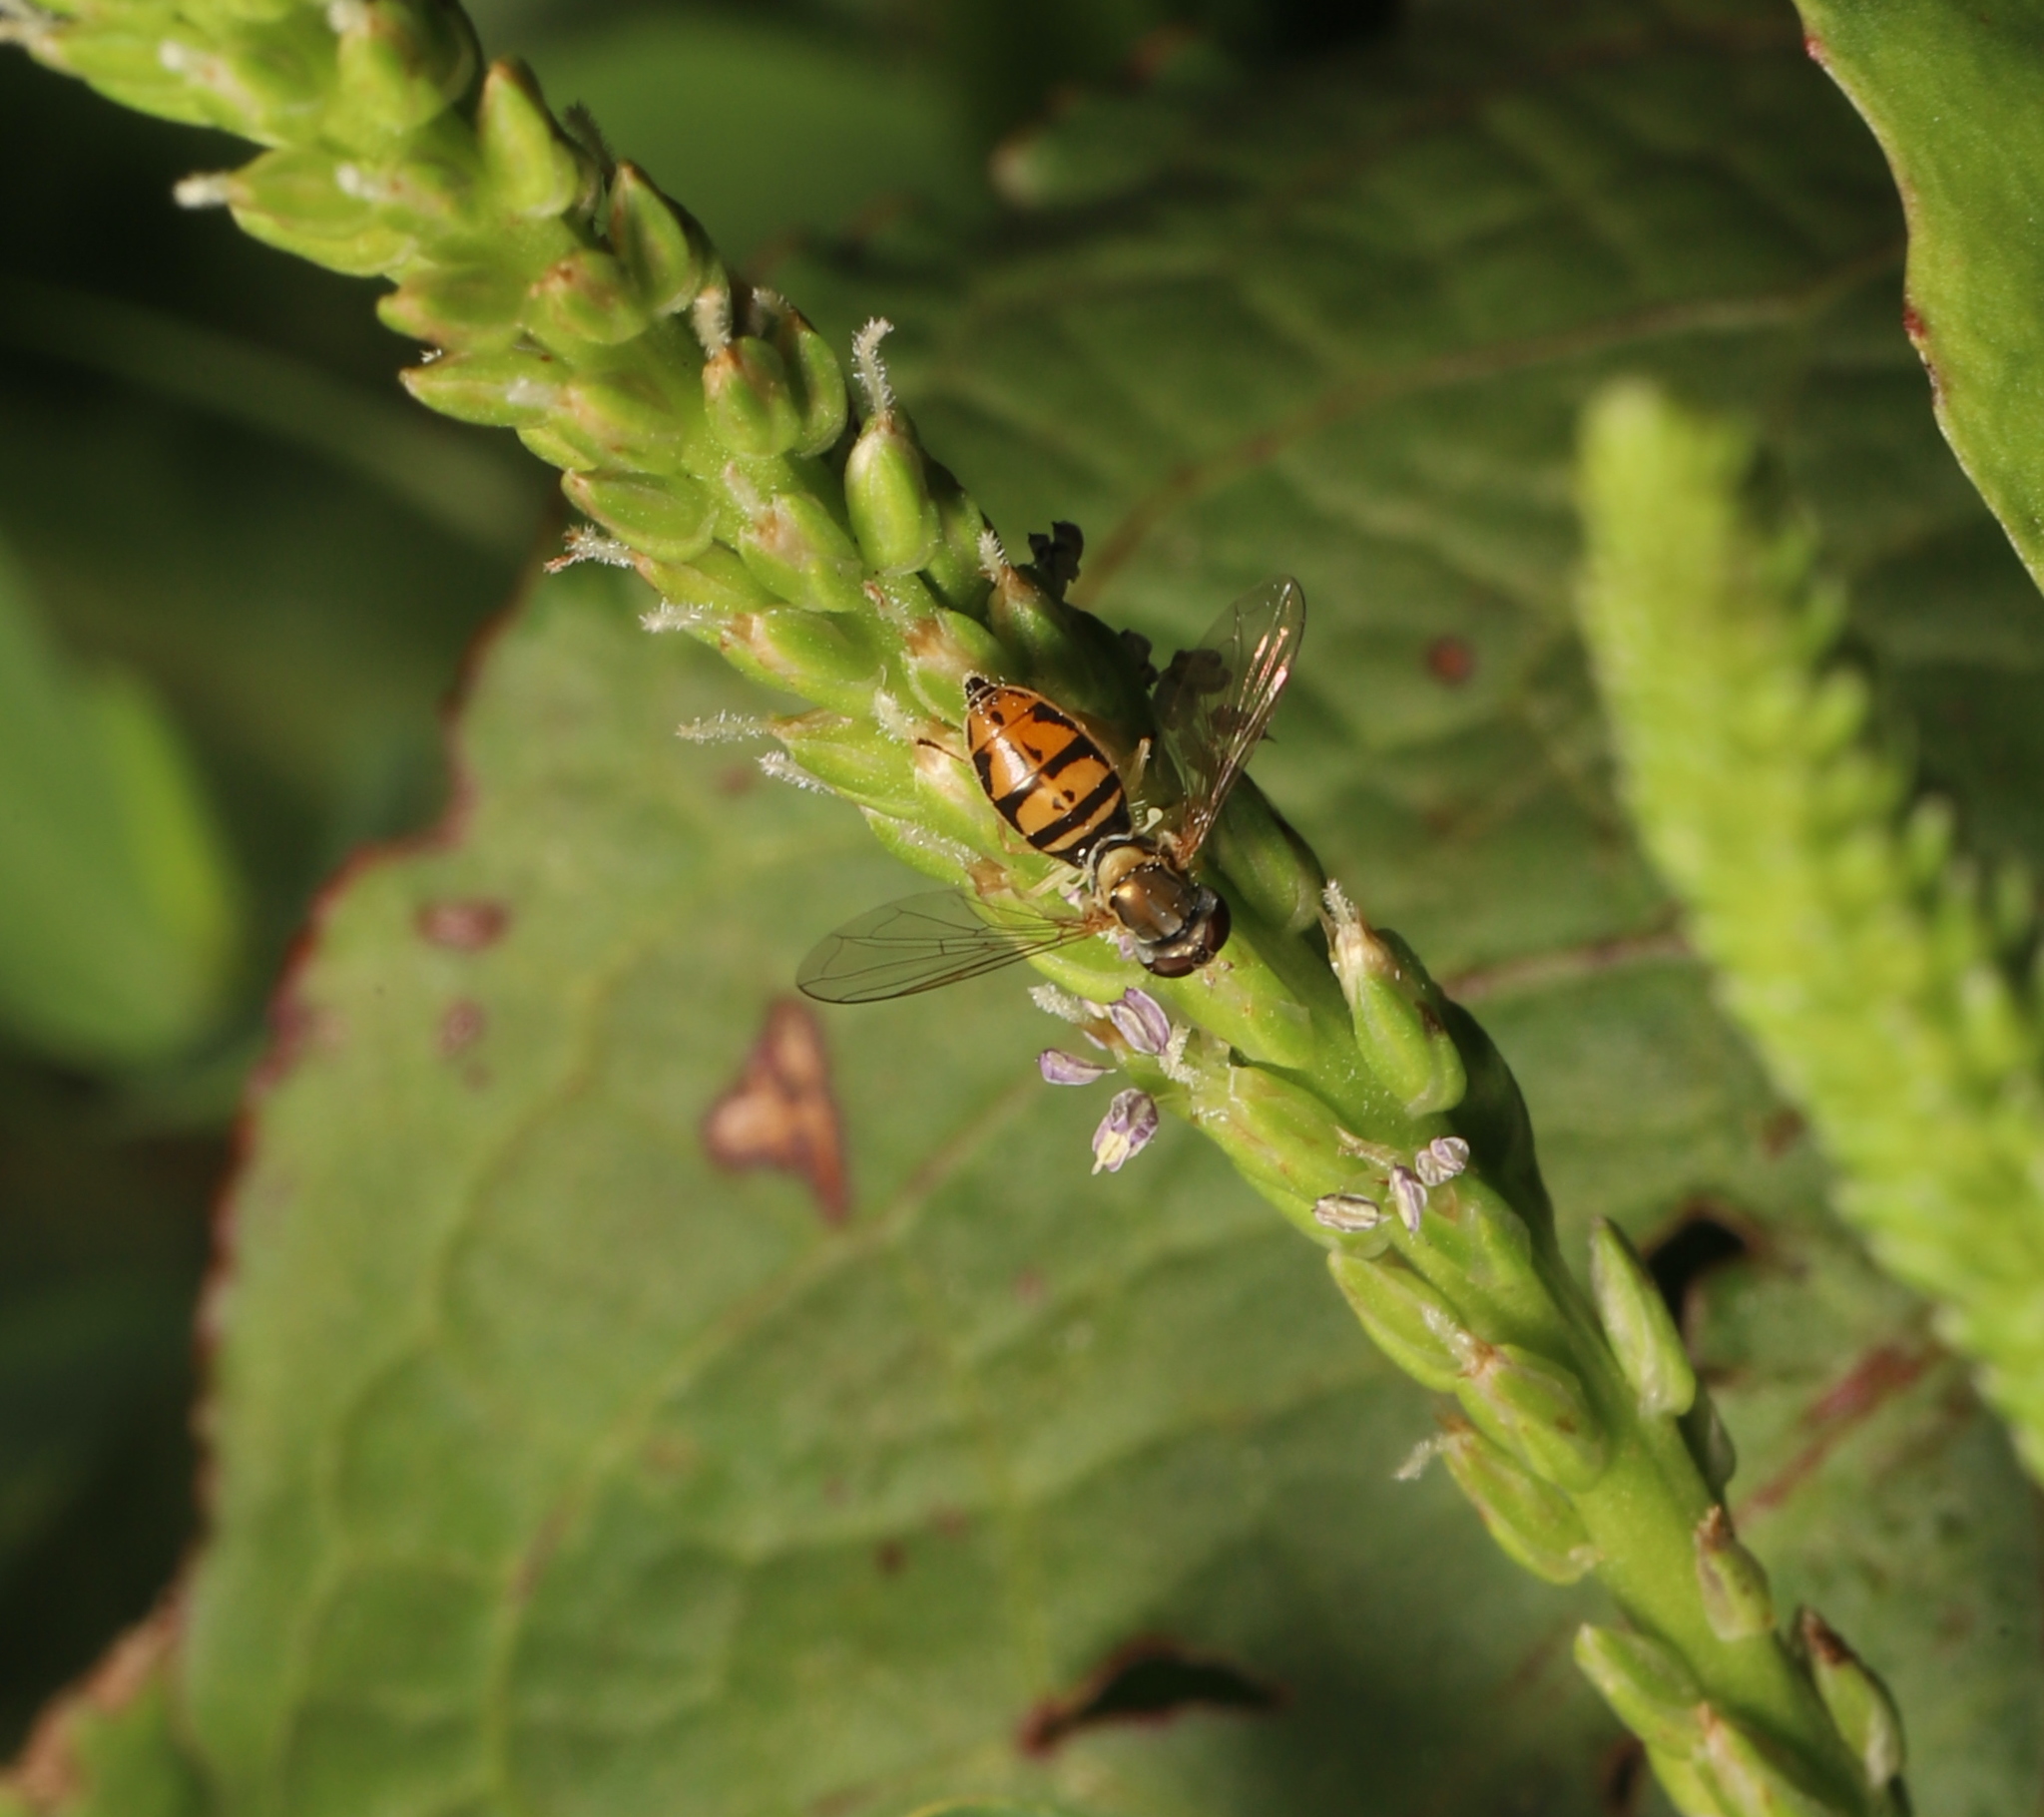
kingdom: Animalia
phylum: Arthropoda
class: Insecta
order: Diptera
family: Syrphidae
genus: Toxomerus
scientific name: Toxomerus marginatus
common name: Syrphid fly
